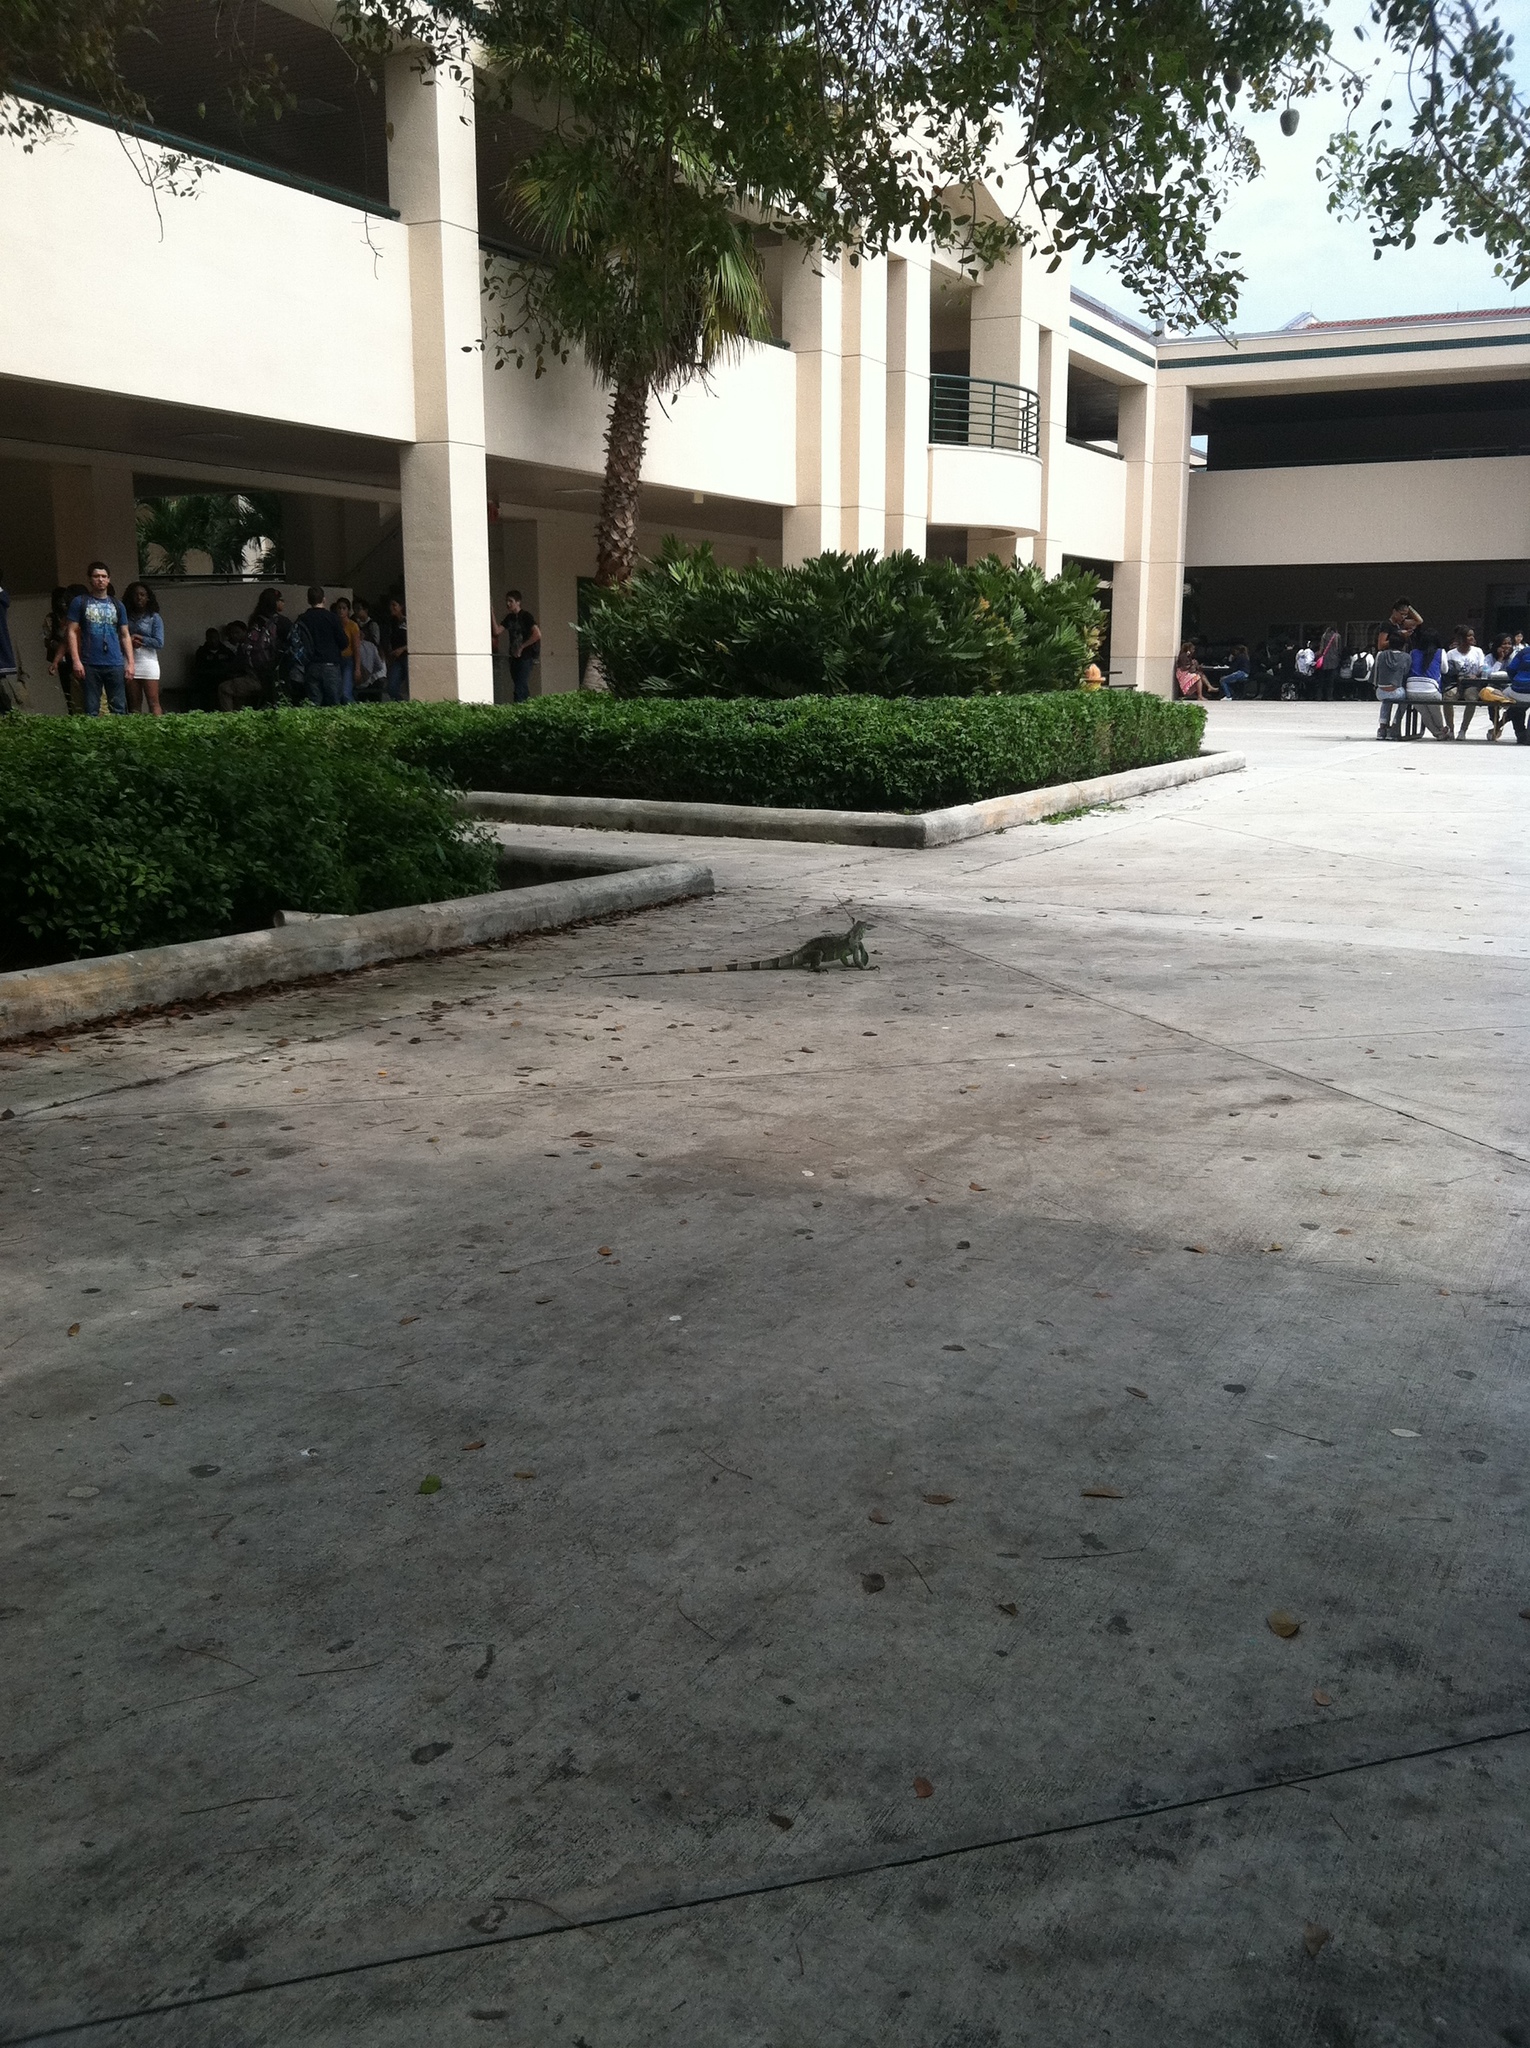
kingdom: Animalia
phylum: Chordata
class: Squamata
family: Iguanidae
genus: Iguana
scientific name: Iguana iguana
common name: Green iguana
